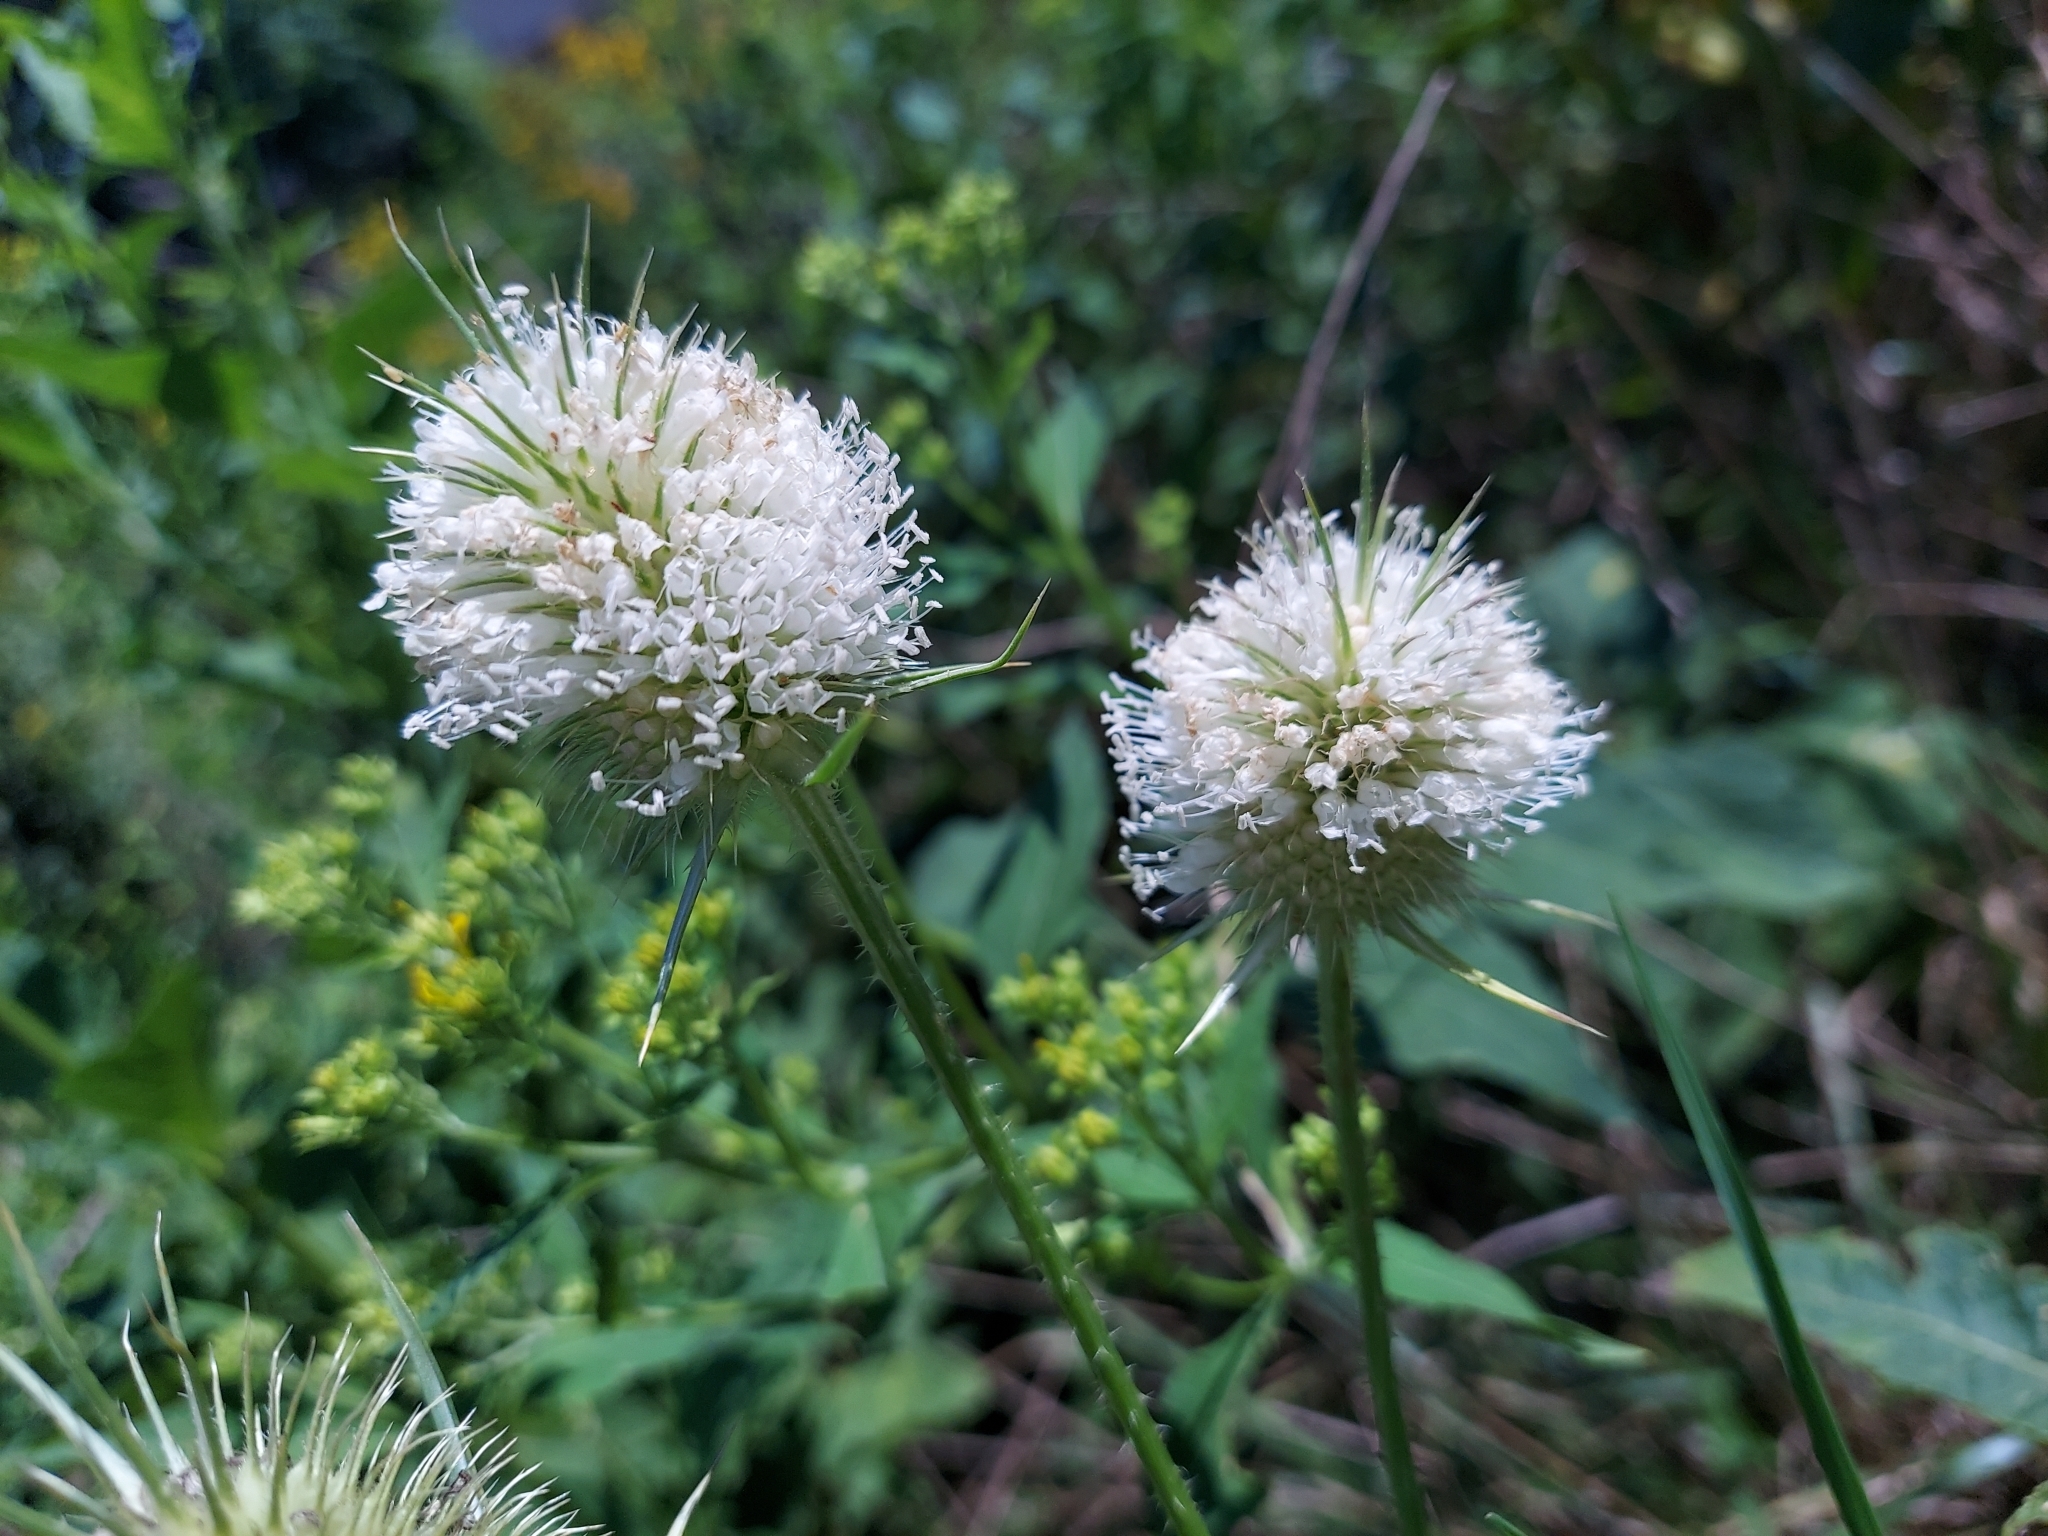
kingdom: Plantae
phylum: Tracheophyta
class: Magnoliopsida
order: Dipsacales
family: Caprifoliaceae
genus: Dipsacus
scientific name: Dipsacus laciniatus
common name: Cut-leaved teasel
